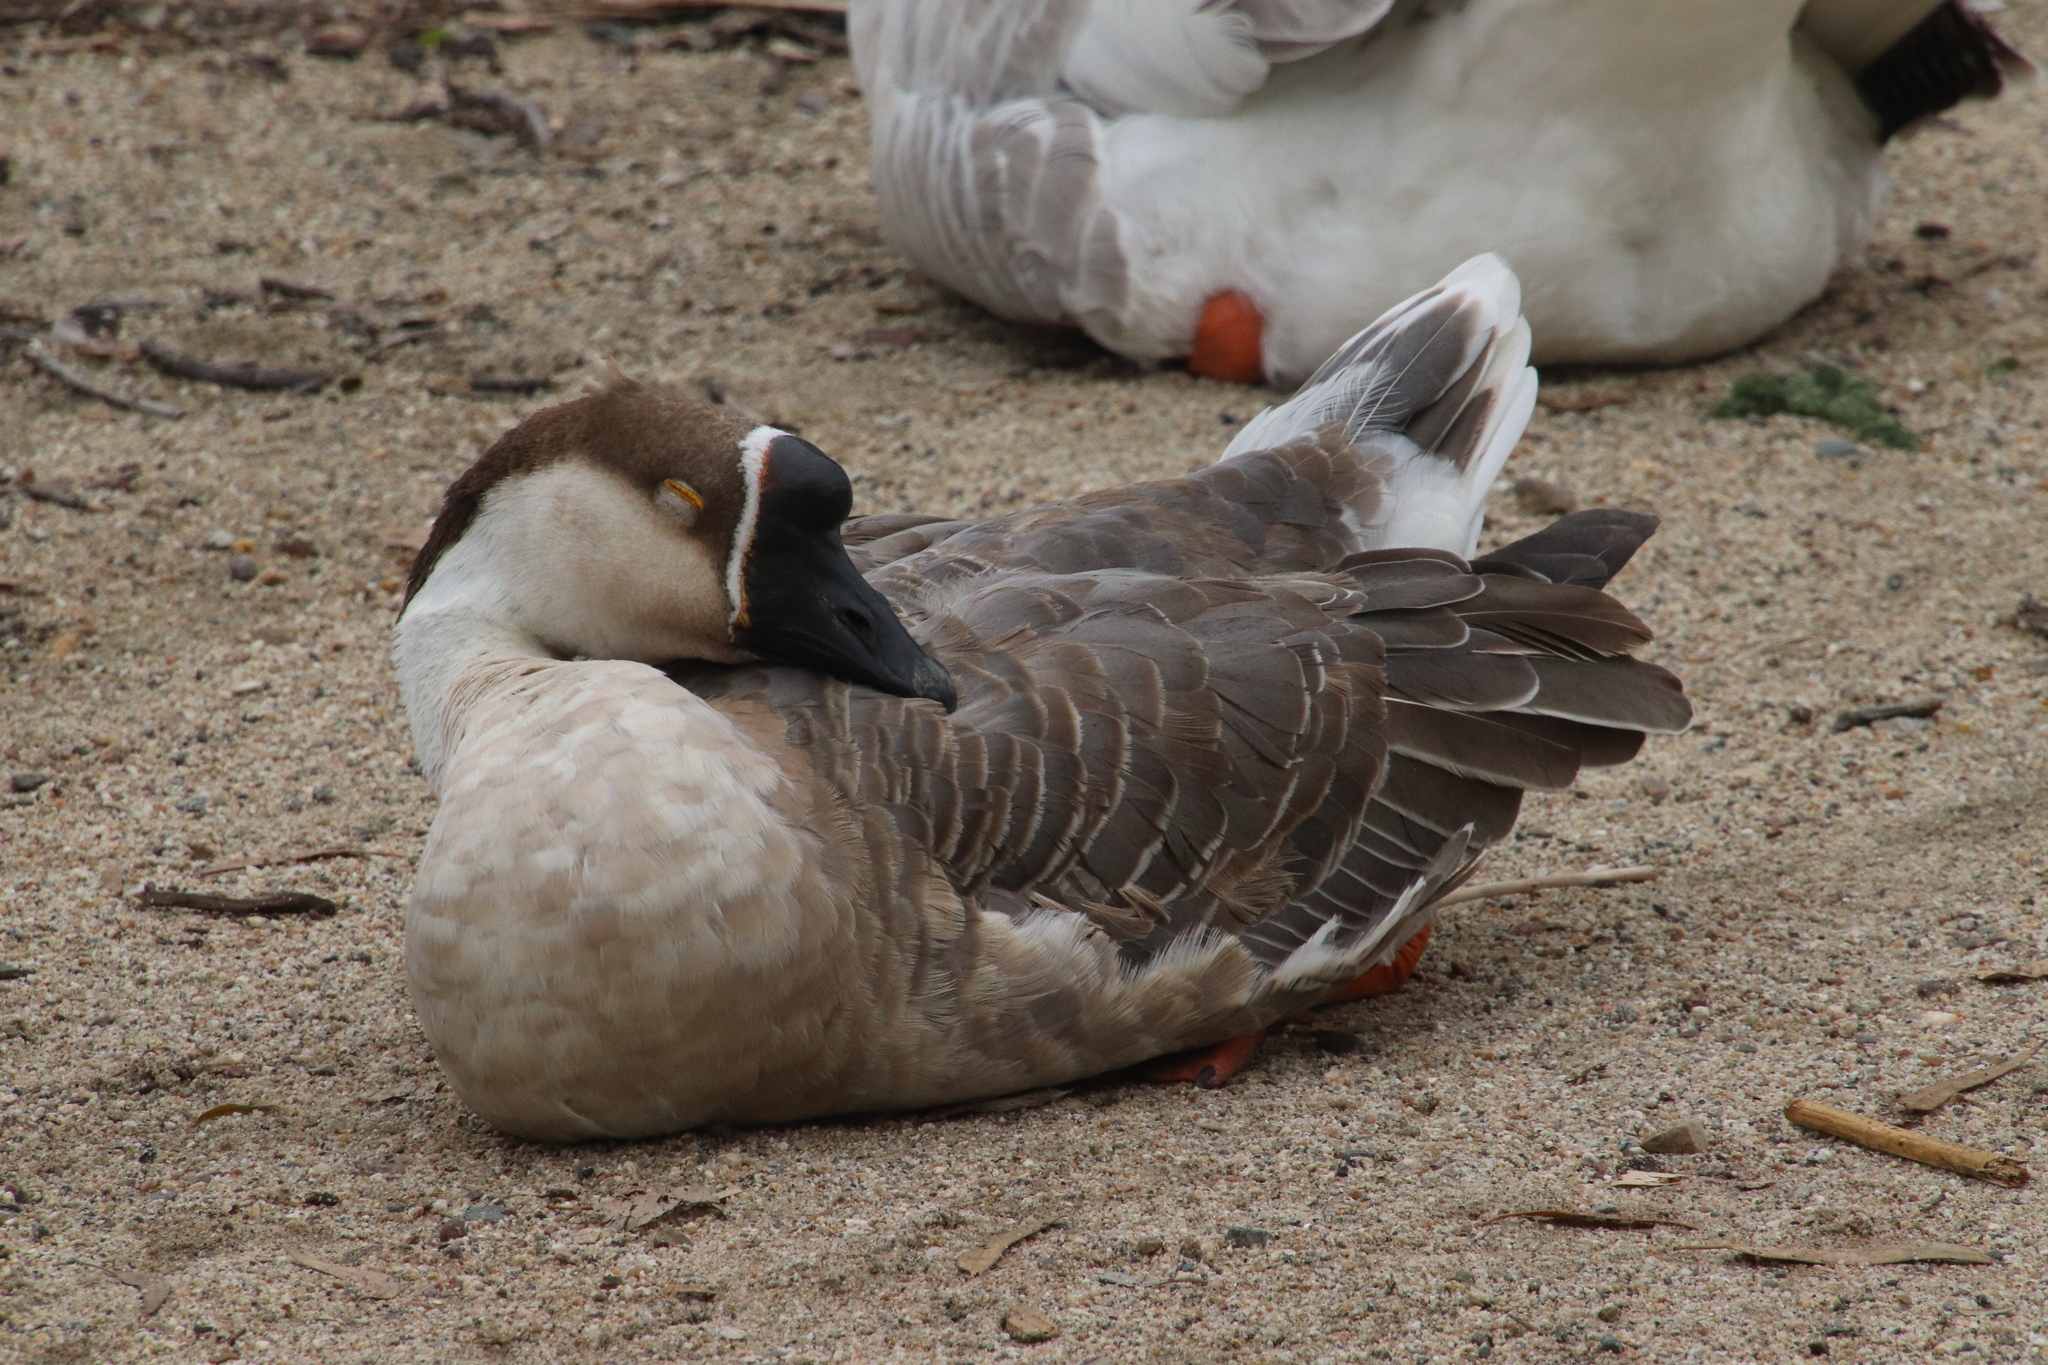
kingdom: Animalia
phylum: Chordata
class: Aves
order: Anseriformes
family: Anatidae
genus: Anser
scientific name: Anser cygnoides
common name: Swan goose
